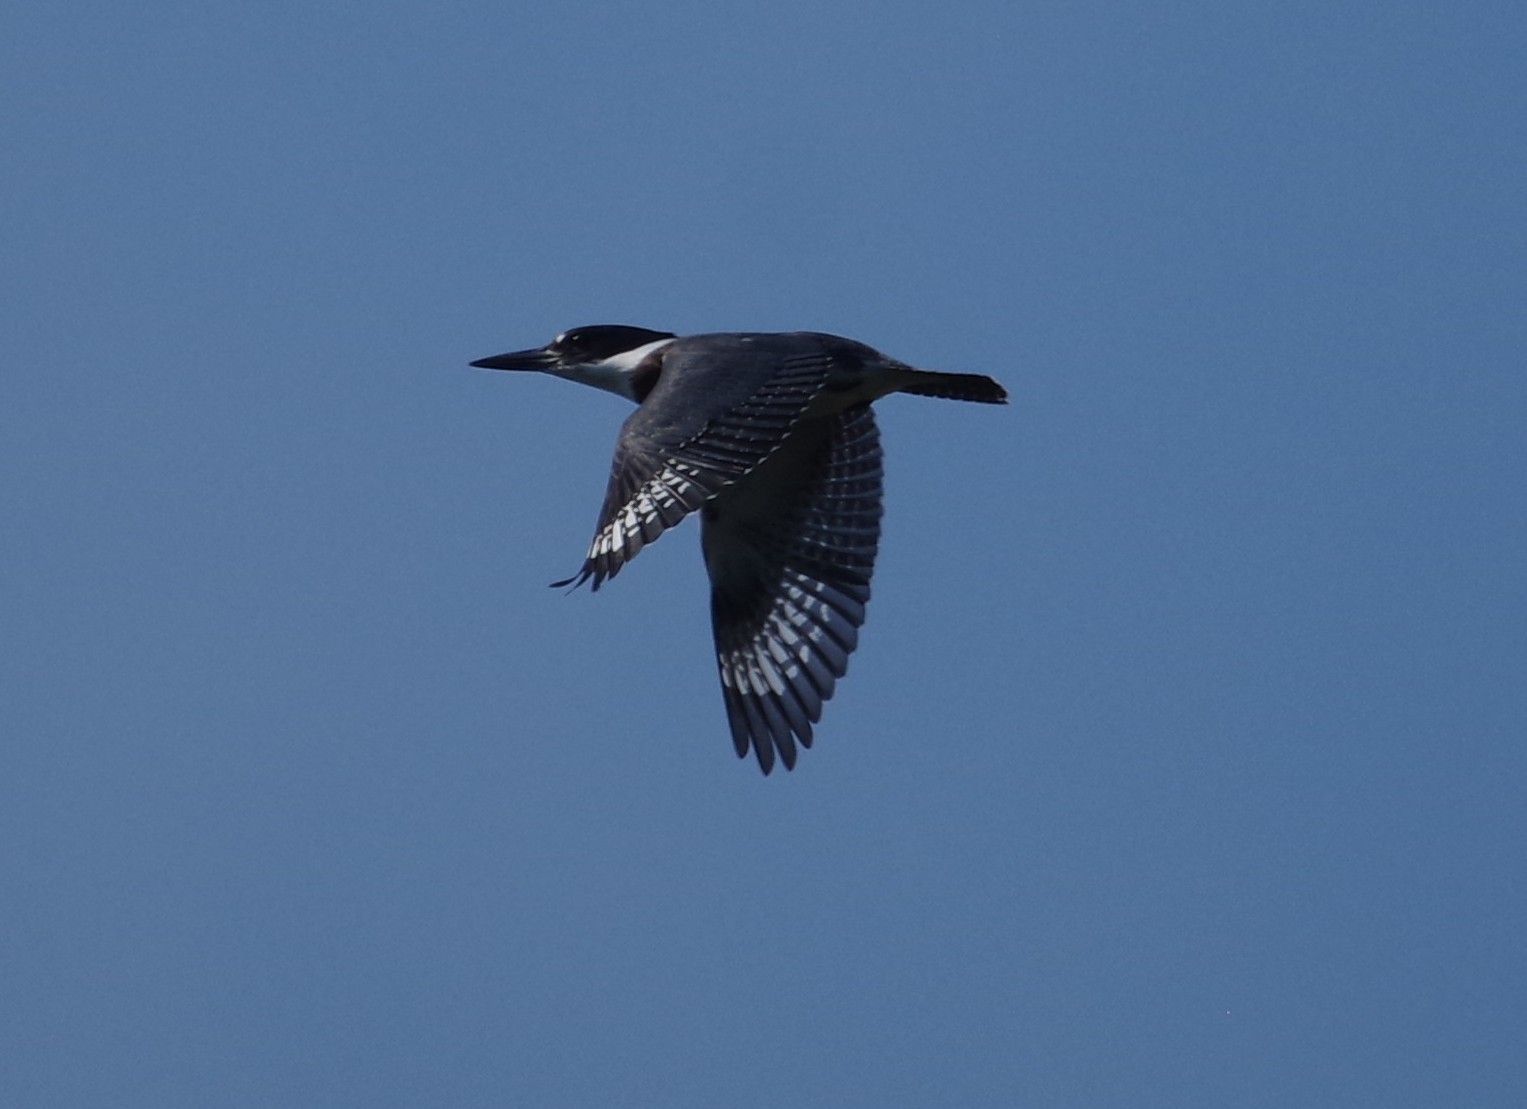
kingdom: Animalia
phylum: Chordata
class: Aves
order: Coraciiformes
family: Alcedinidae
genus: Megaceryle
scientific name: Megaceryle alcyon
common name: Belted kingfisher
